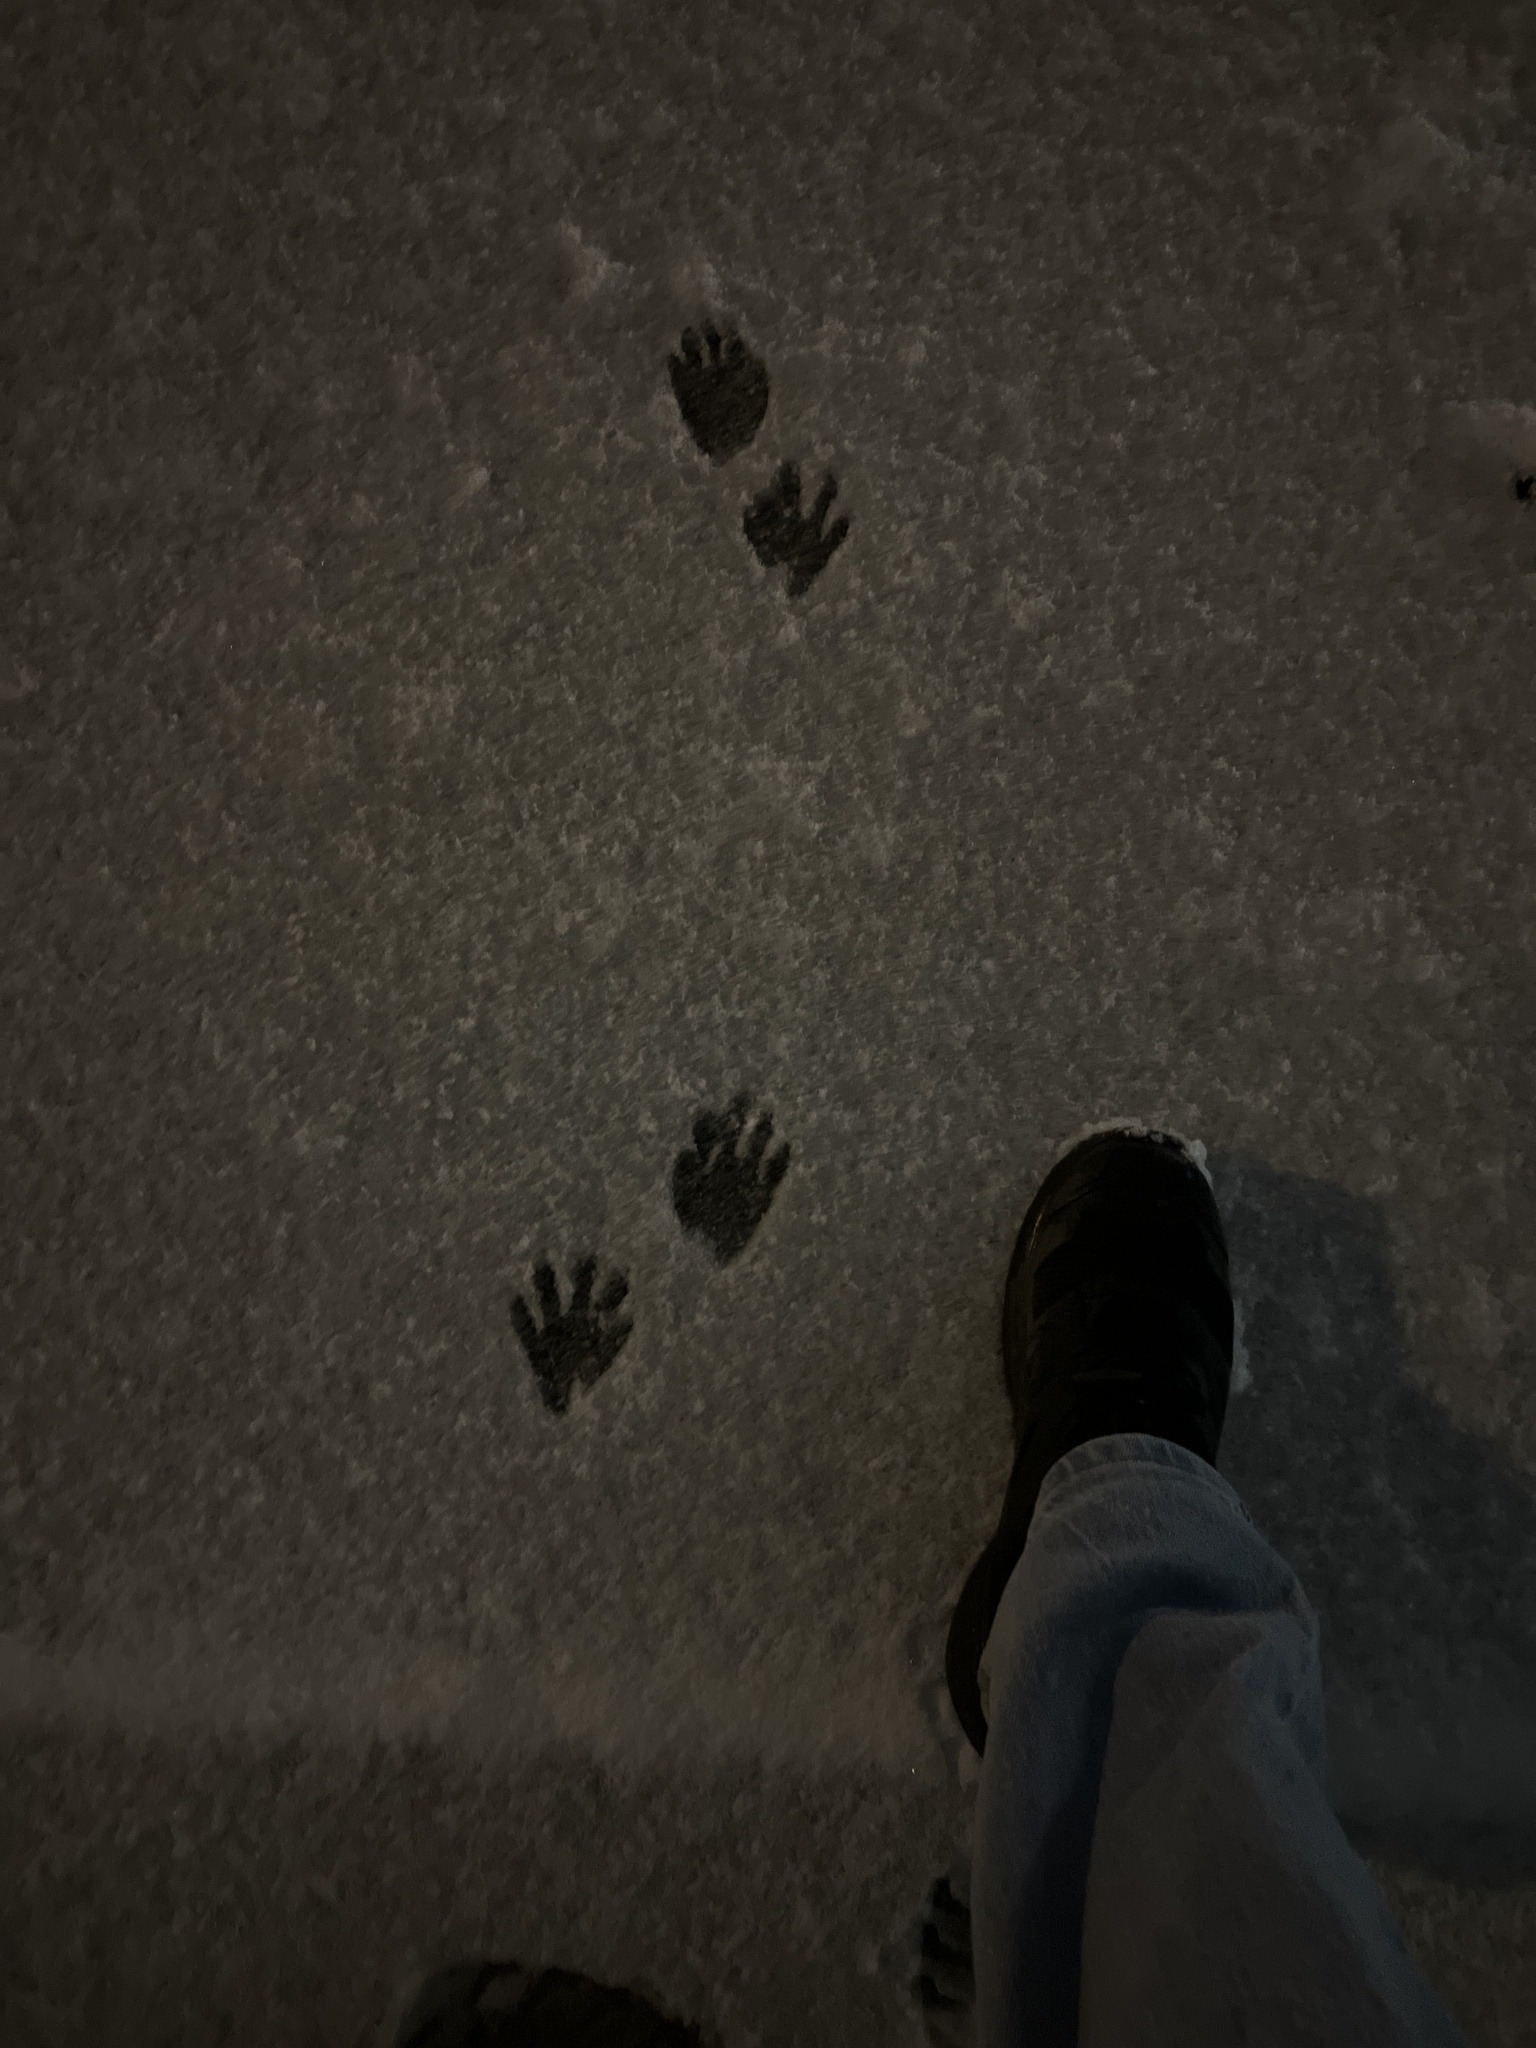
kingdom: Animalia
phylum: Chordata
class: Mammalia
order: Carnivora
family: Procyonidae
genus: Procyon
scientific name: Procyon lotor
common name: Raccoon
